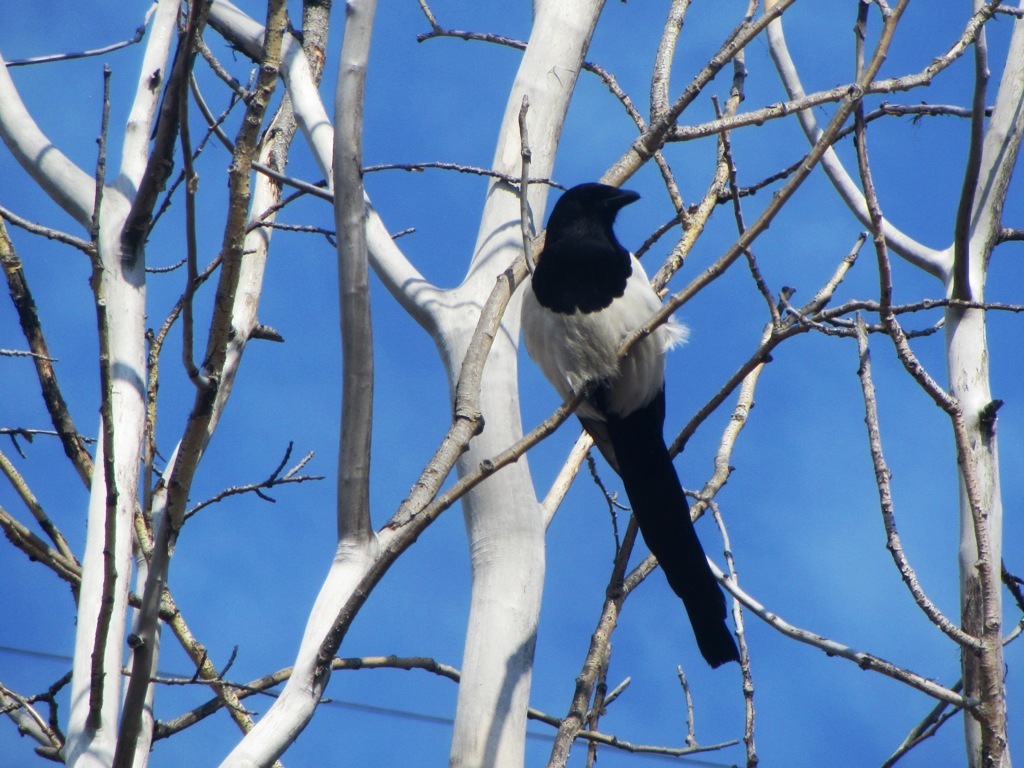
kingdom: Animalia
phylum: Chordata
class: Aves
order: Passeriformes
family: Corvidae
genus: Pica
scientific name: Pica pica
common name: Eurasian magpie
